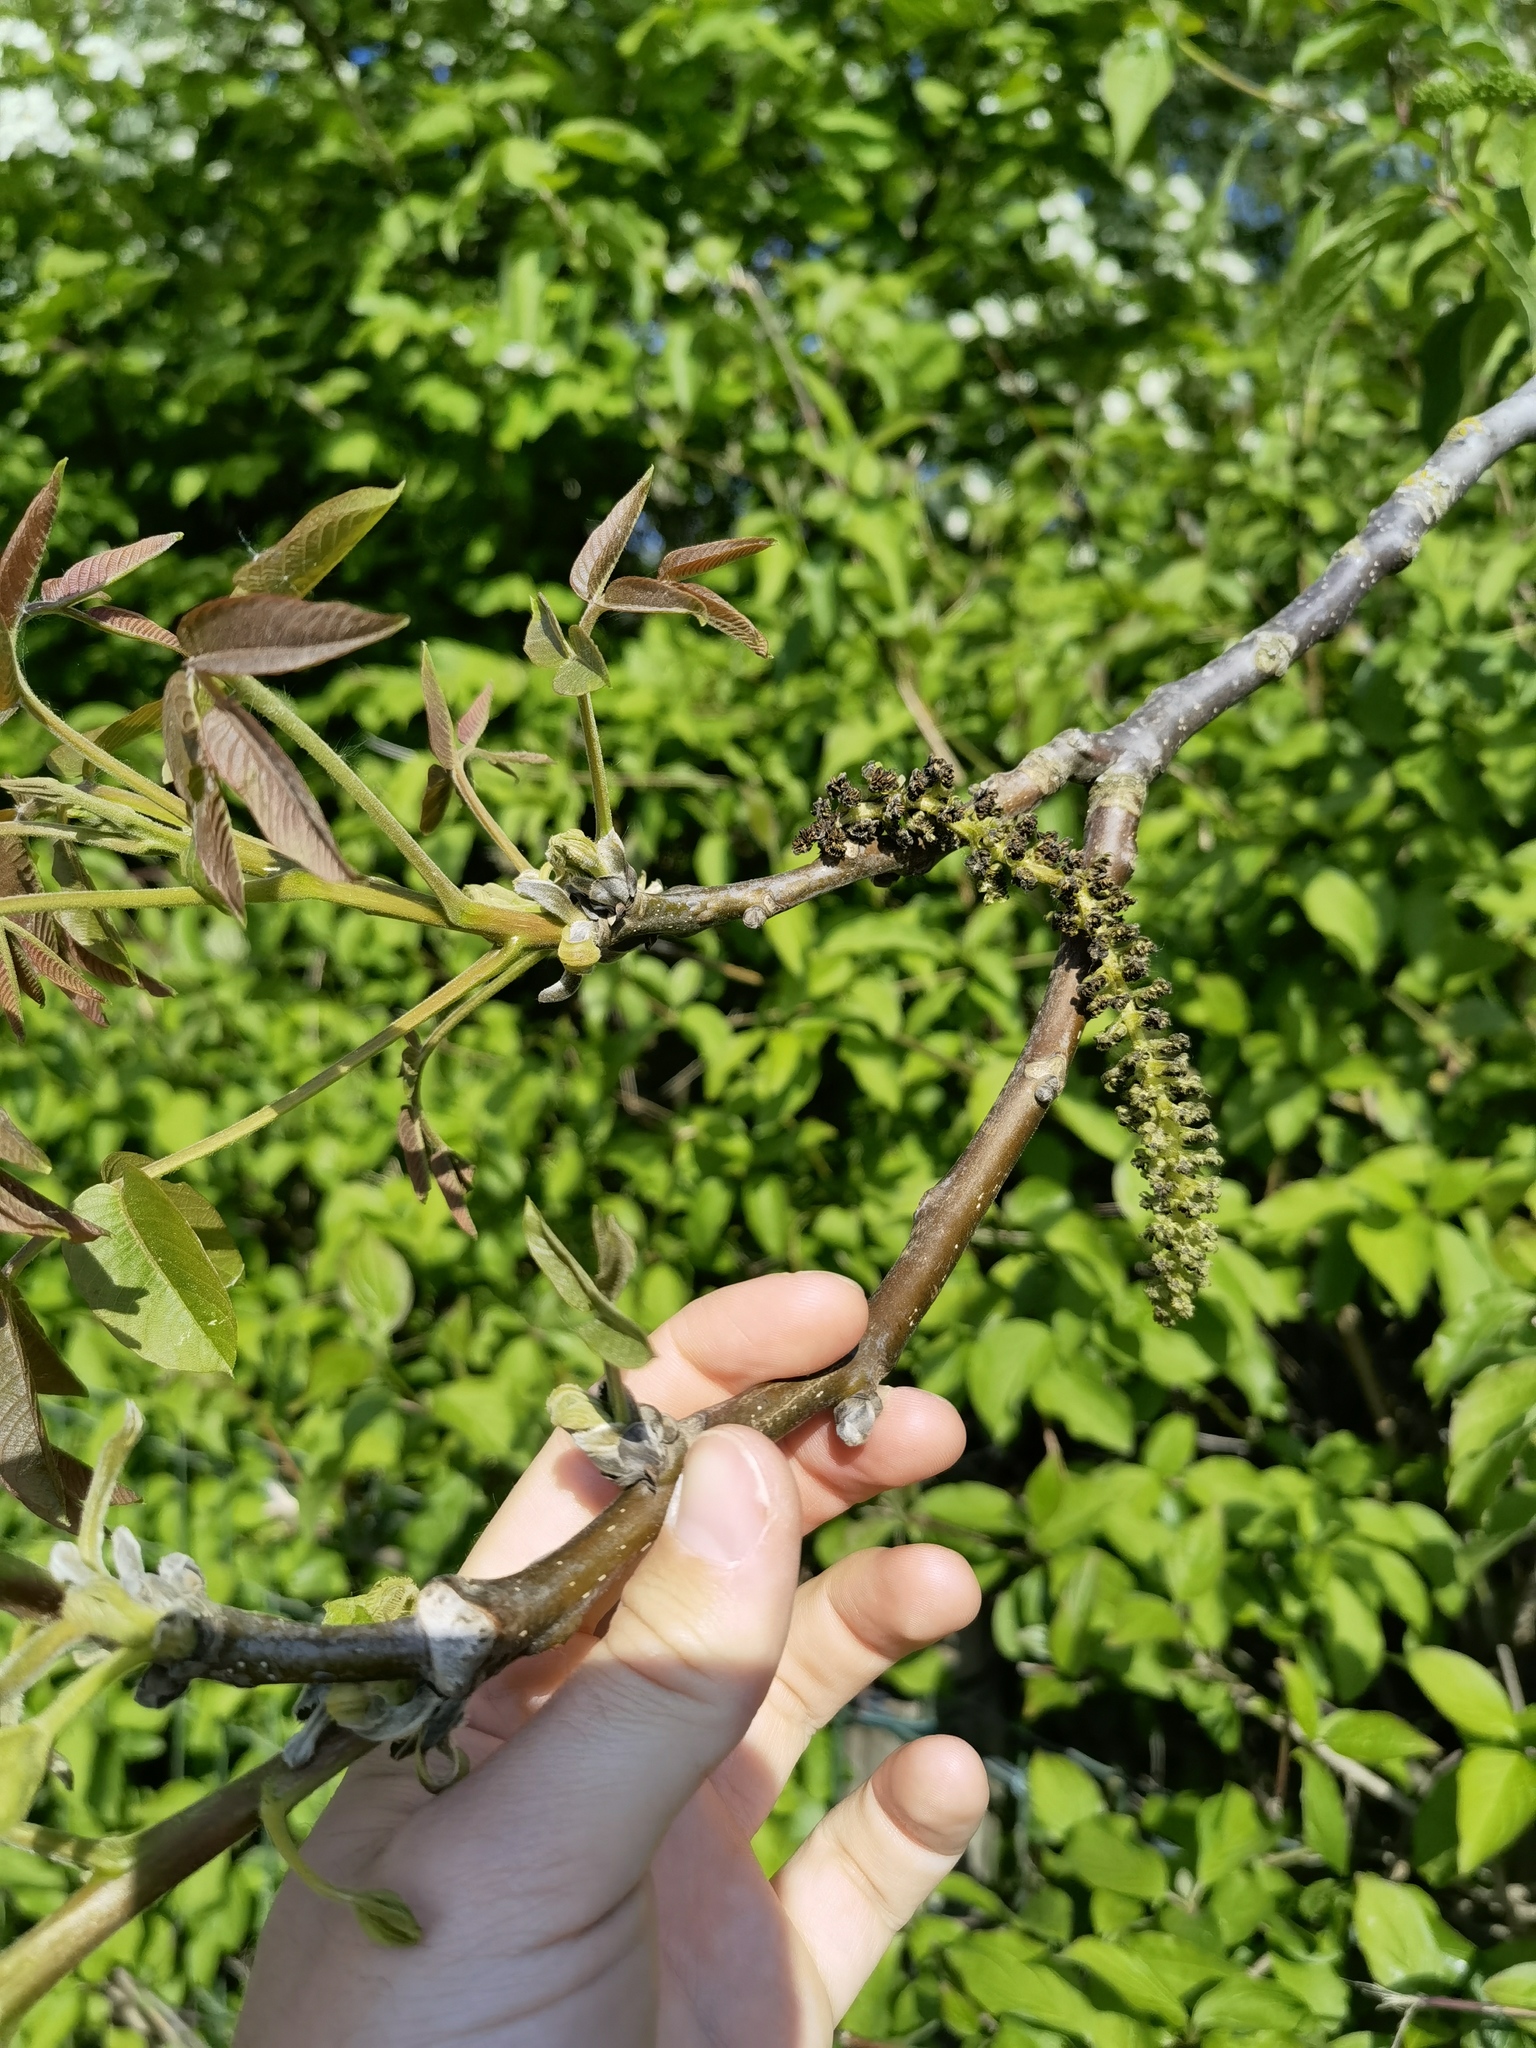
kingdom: Plantae
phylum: Tracheophyta
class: Magnoliopsida
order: Fagales
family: Juglandaceae
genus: Juglans
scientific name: Juglans regia
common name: Walnut
